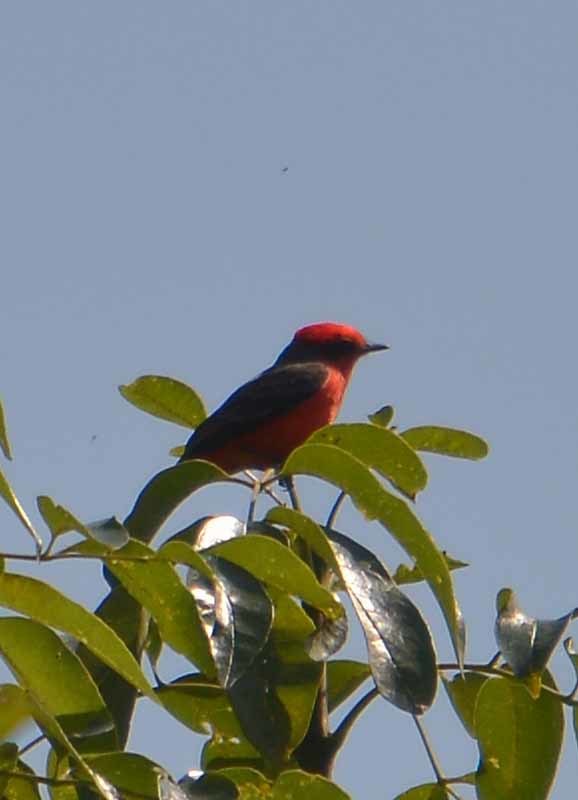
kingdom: Animalia
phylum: Chordata
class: Aves
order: Passeriformes
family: Tyrannidae
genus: Pyrocephalus
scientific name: Pyrocephalus rubinus
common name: Vermilion flycatcher
